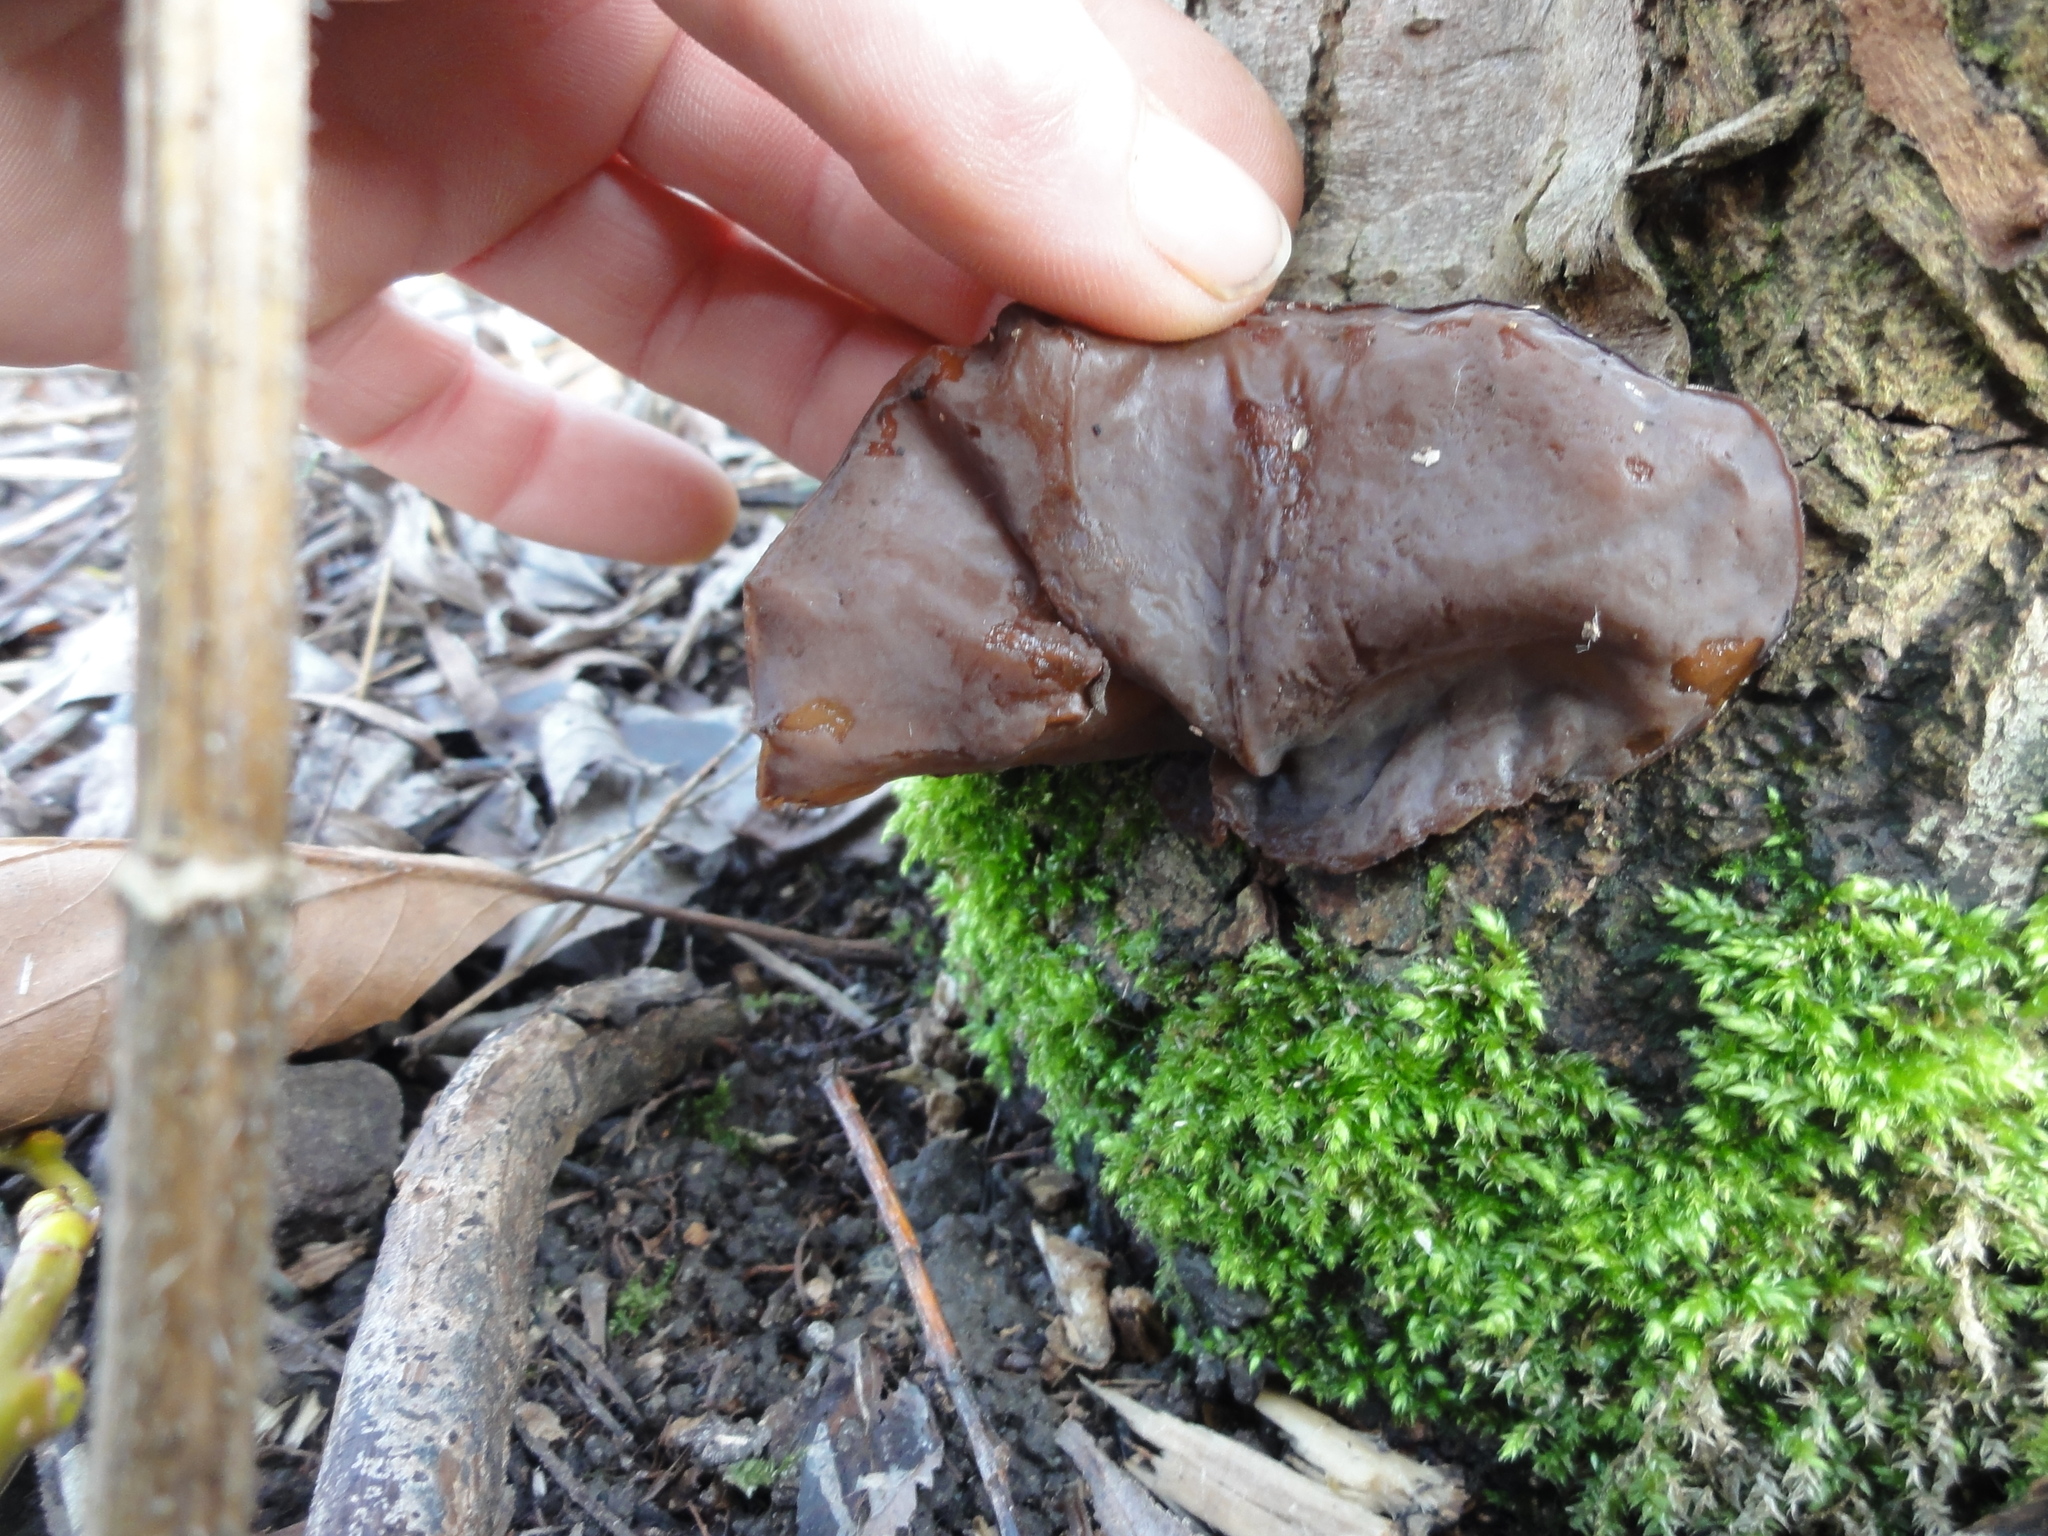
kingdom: Fungi
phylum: Basidiomycota
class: Agaricomycetes
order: Auriculariales
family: Auriculariaceae
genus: Auricularia
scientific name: Auricularia auricula-judae
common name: Jelly ear
